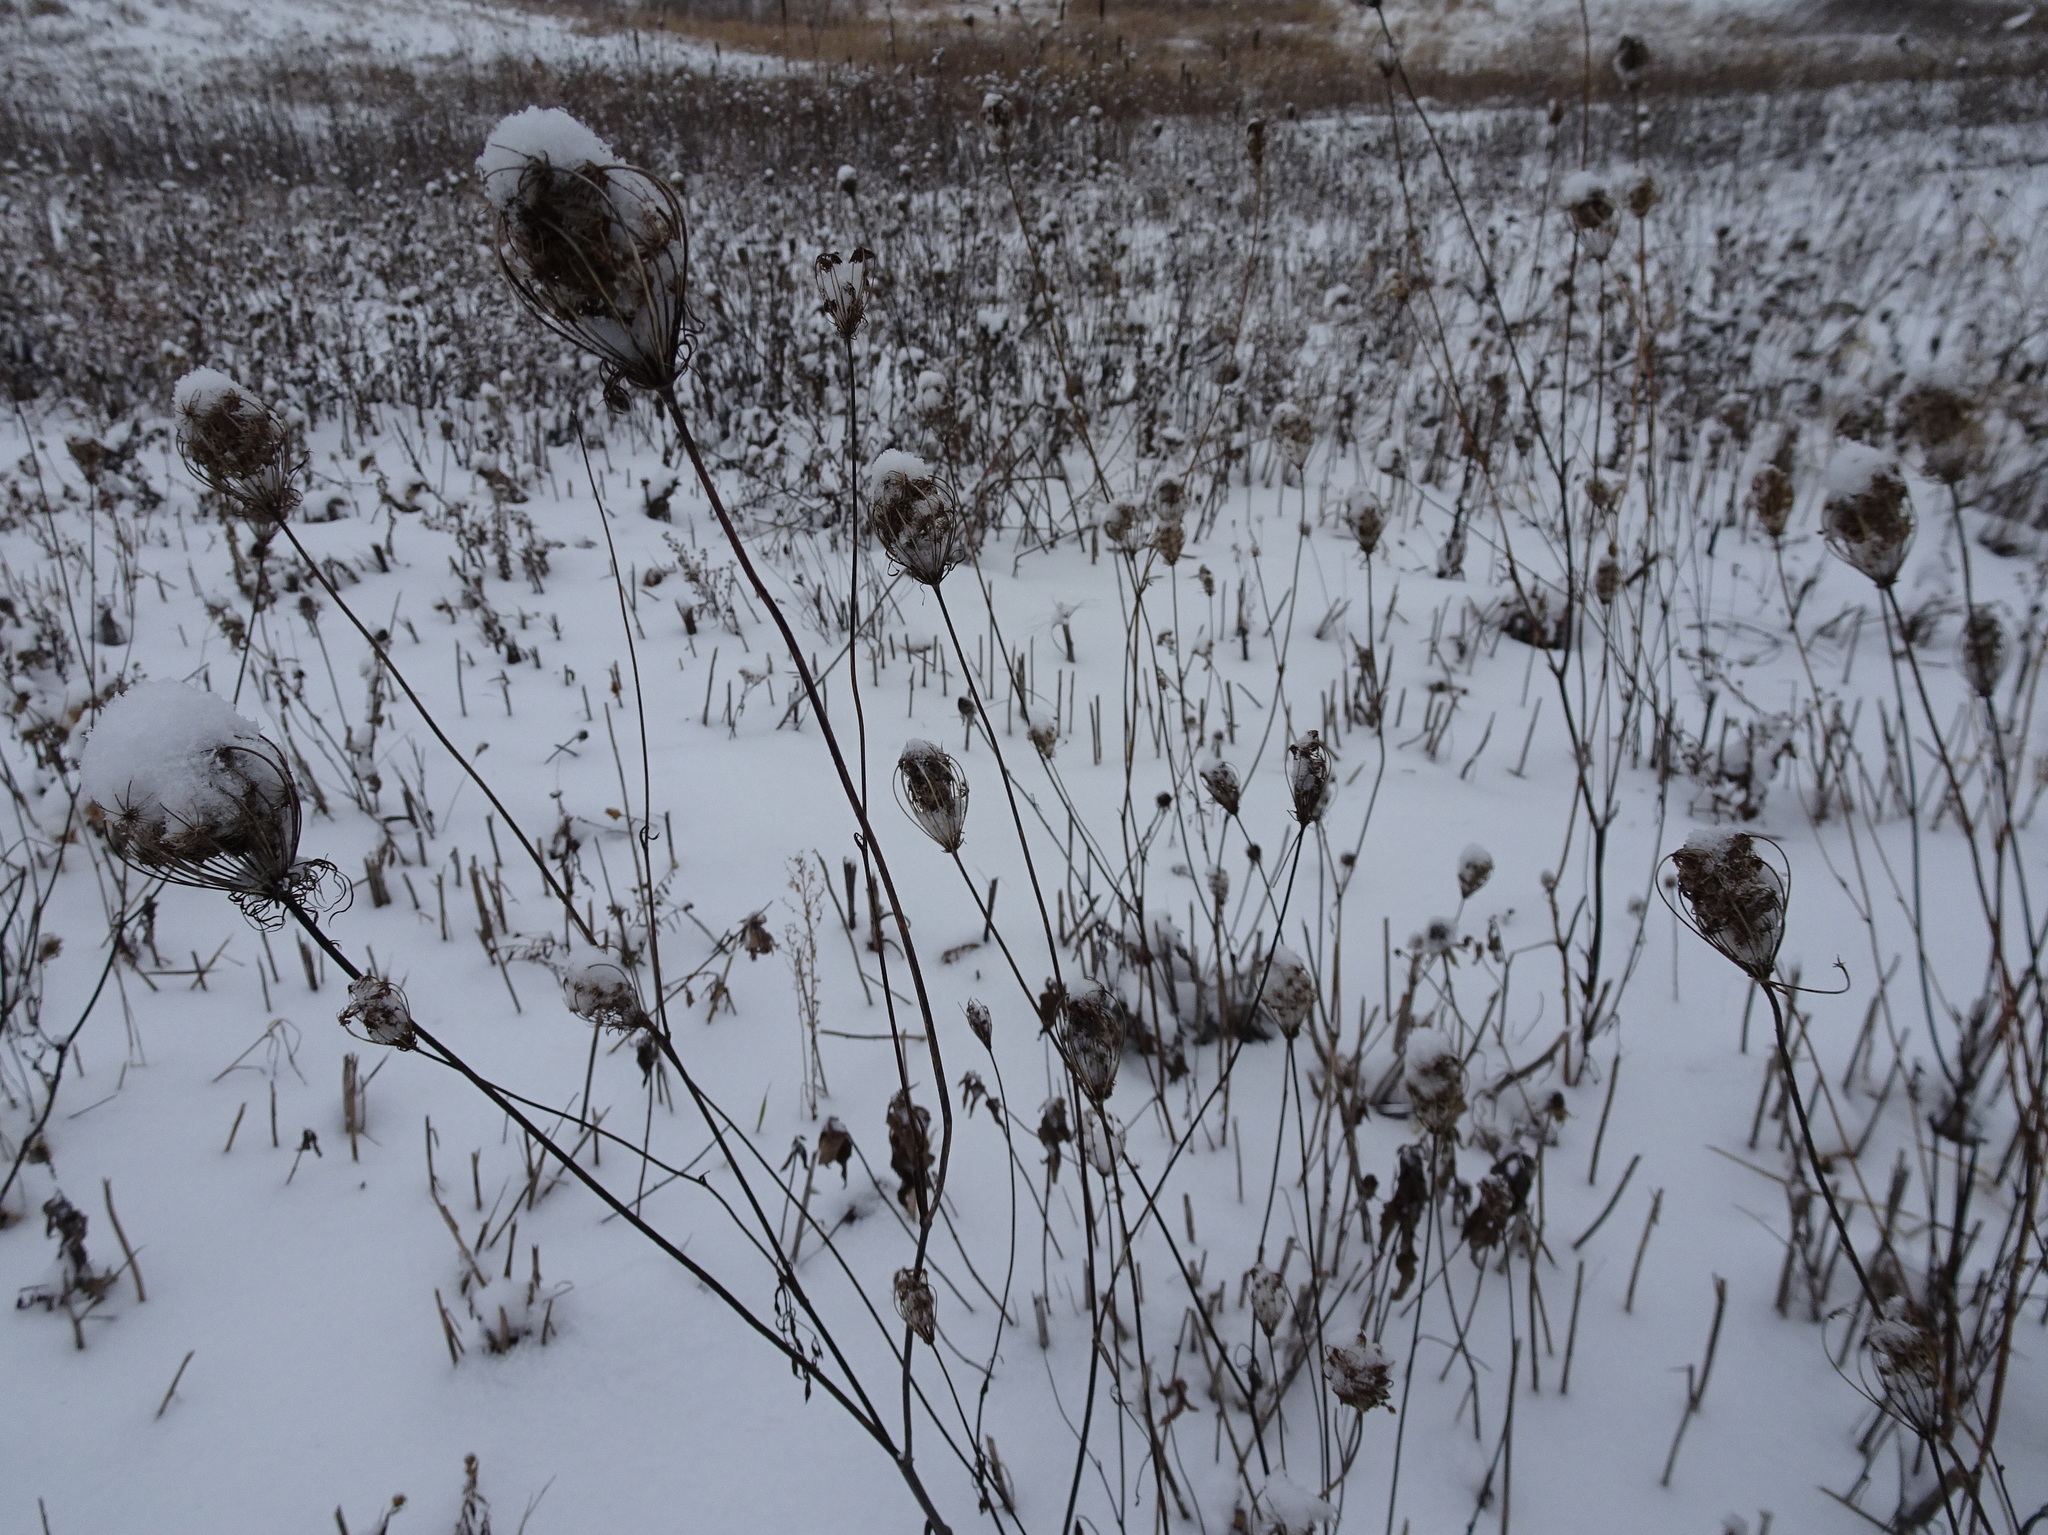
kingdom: Plantae
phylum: Tracheophyta
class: Magnoliopsida
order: Apiales
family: Apiaceae
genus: Daucus
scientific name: Daucus carota
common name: Wild carrot
